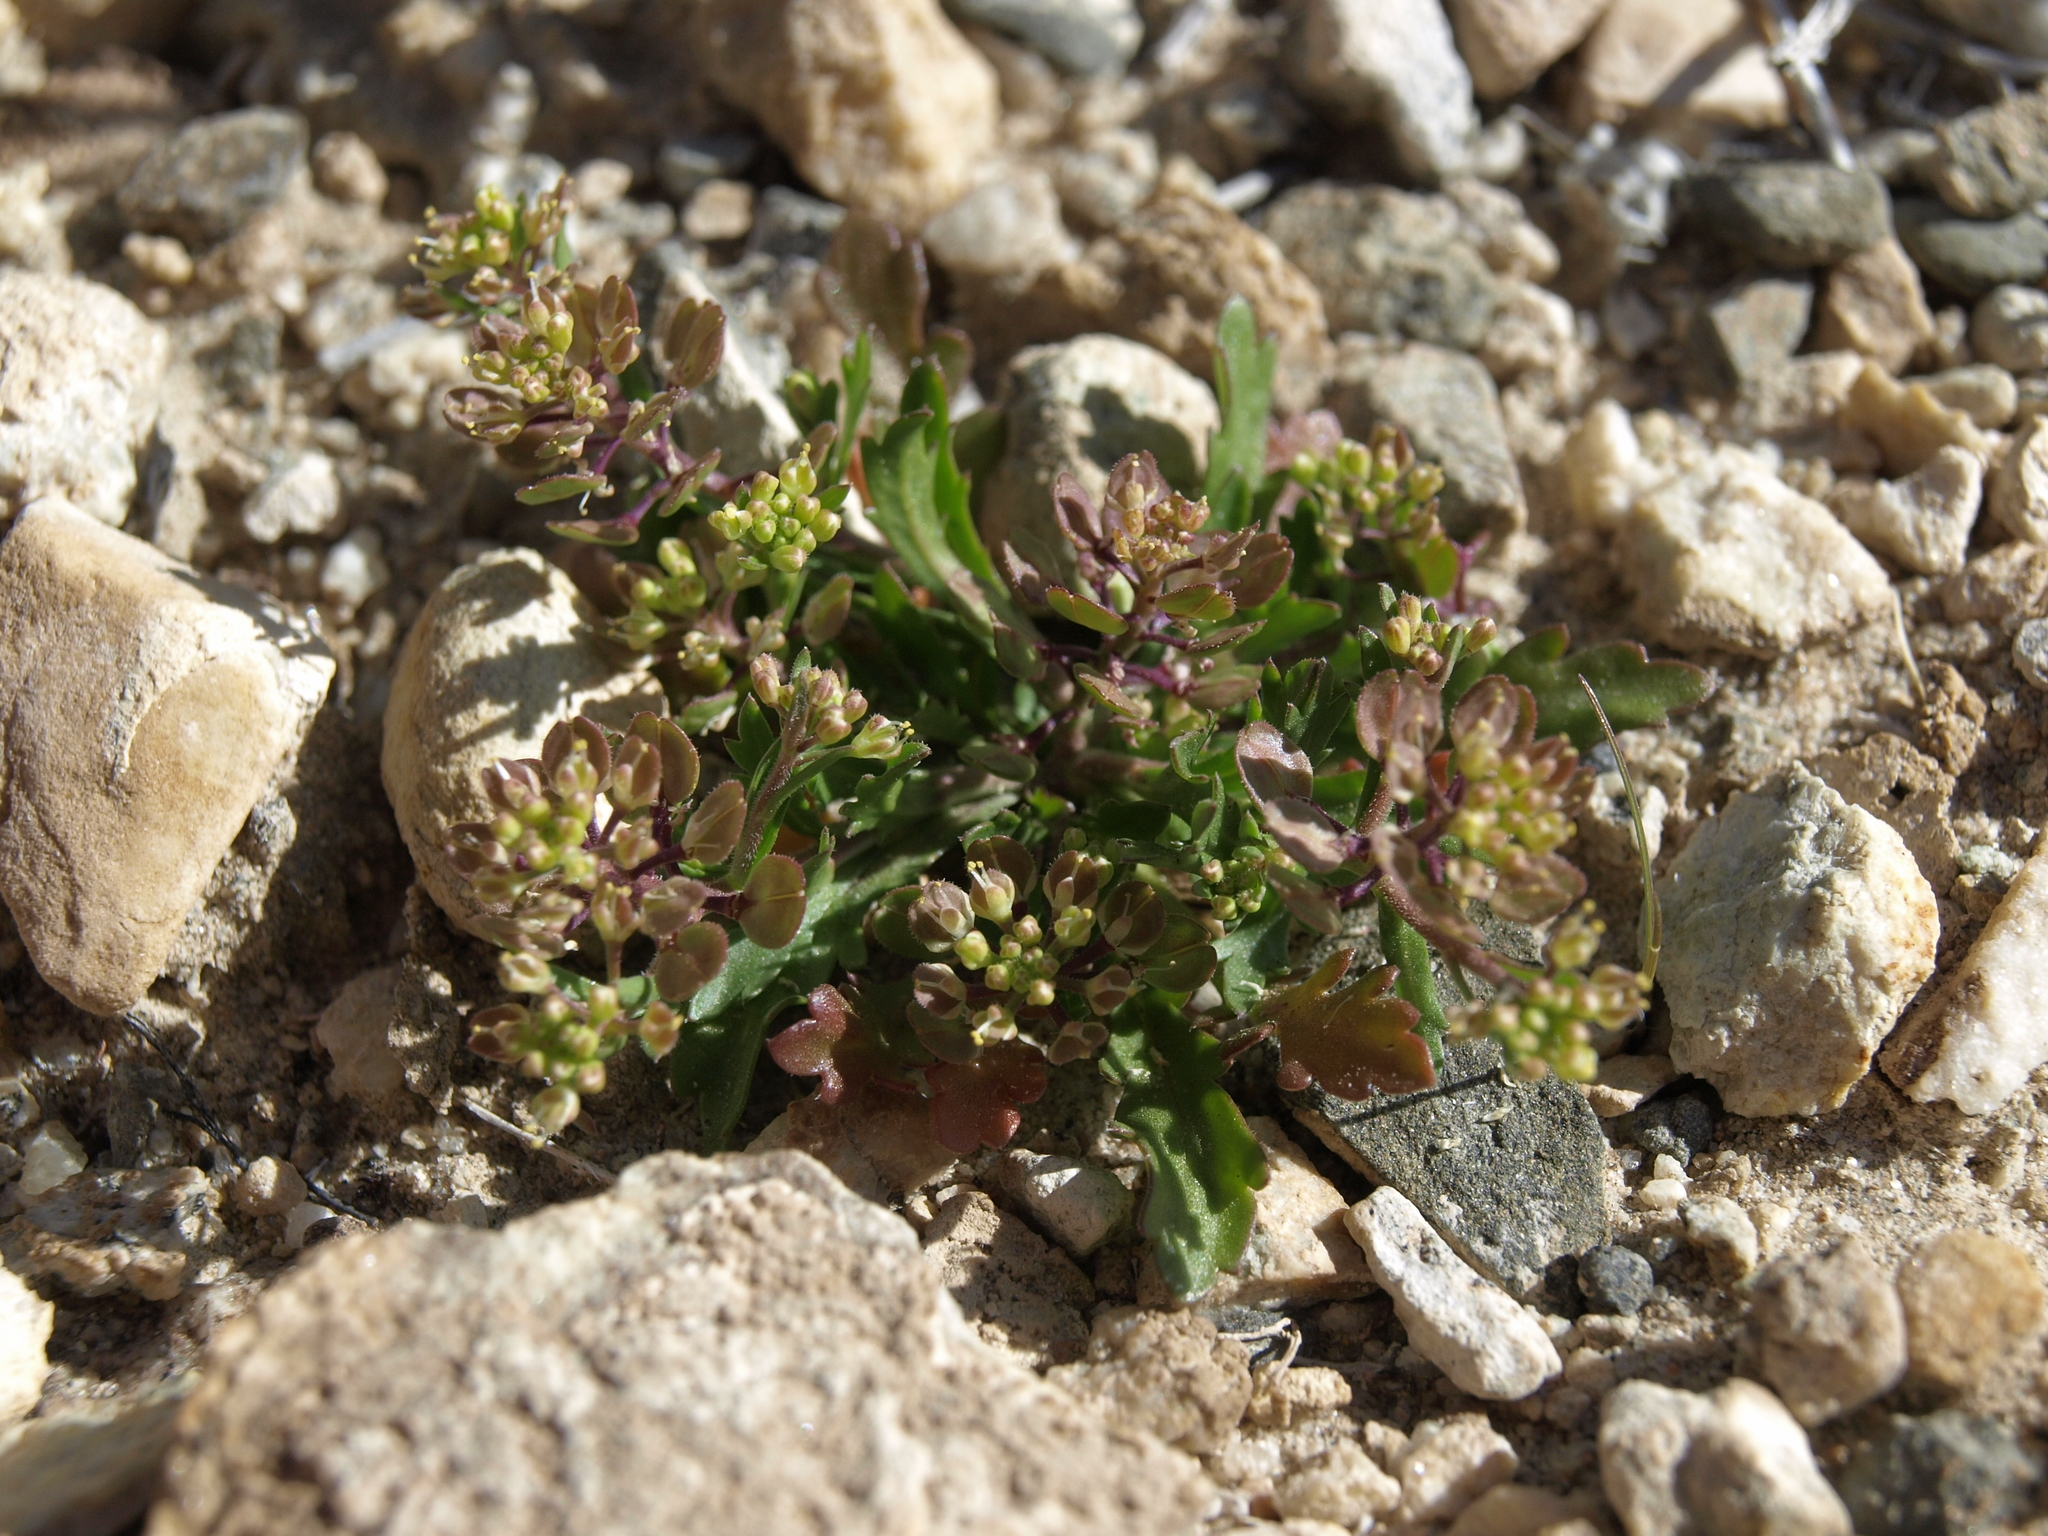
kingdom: Plantae
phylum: Tracheophyta
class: Magnoliopsida
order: Brassicales
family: Brassicaceae
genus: Lepidium
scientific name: Lepidium lasiocarpum
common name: Hairy-pod pepperwort
